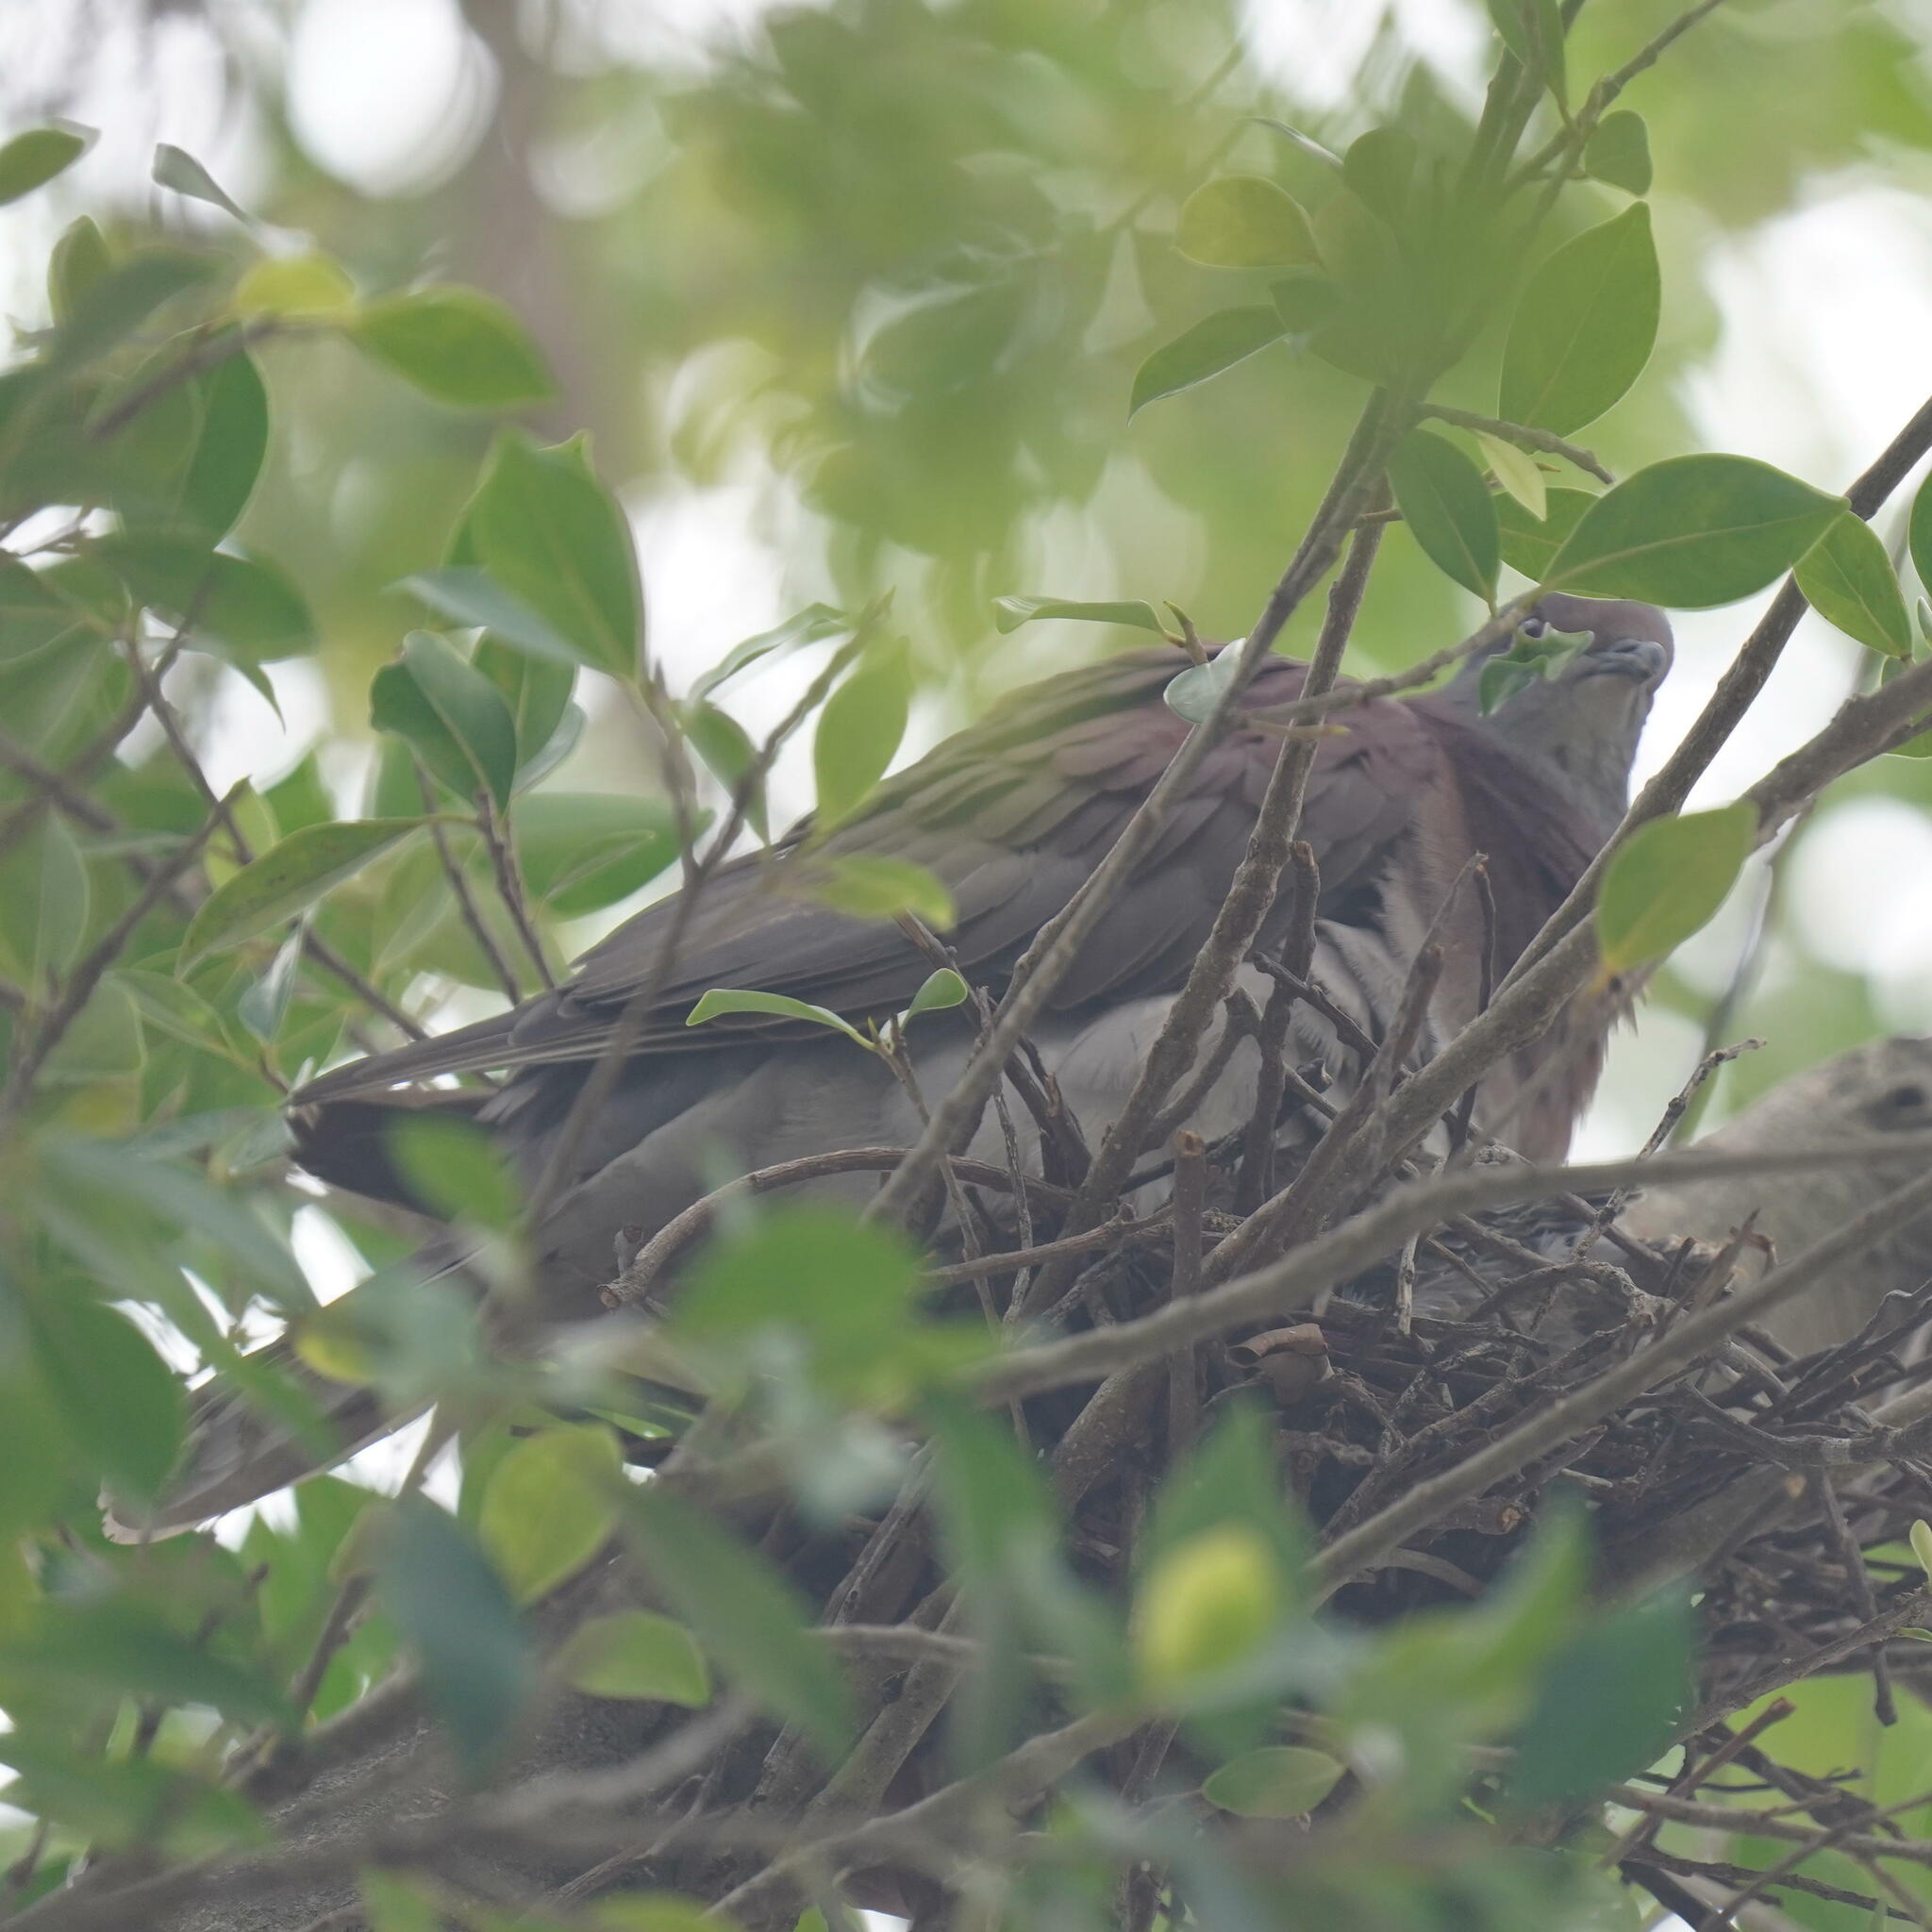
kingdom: Animalia
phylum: Chordata
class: Aves
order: Columbiformes
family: Columbidae
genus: Patagioenas
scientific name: Patagioenas cayennensis
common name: Pale-vented pigeon
